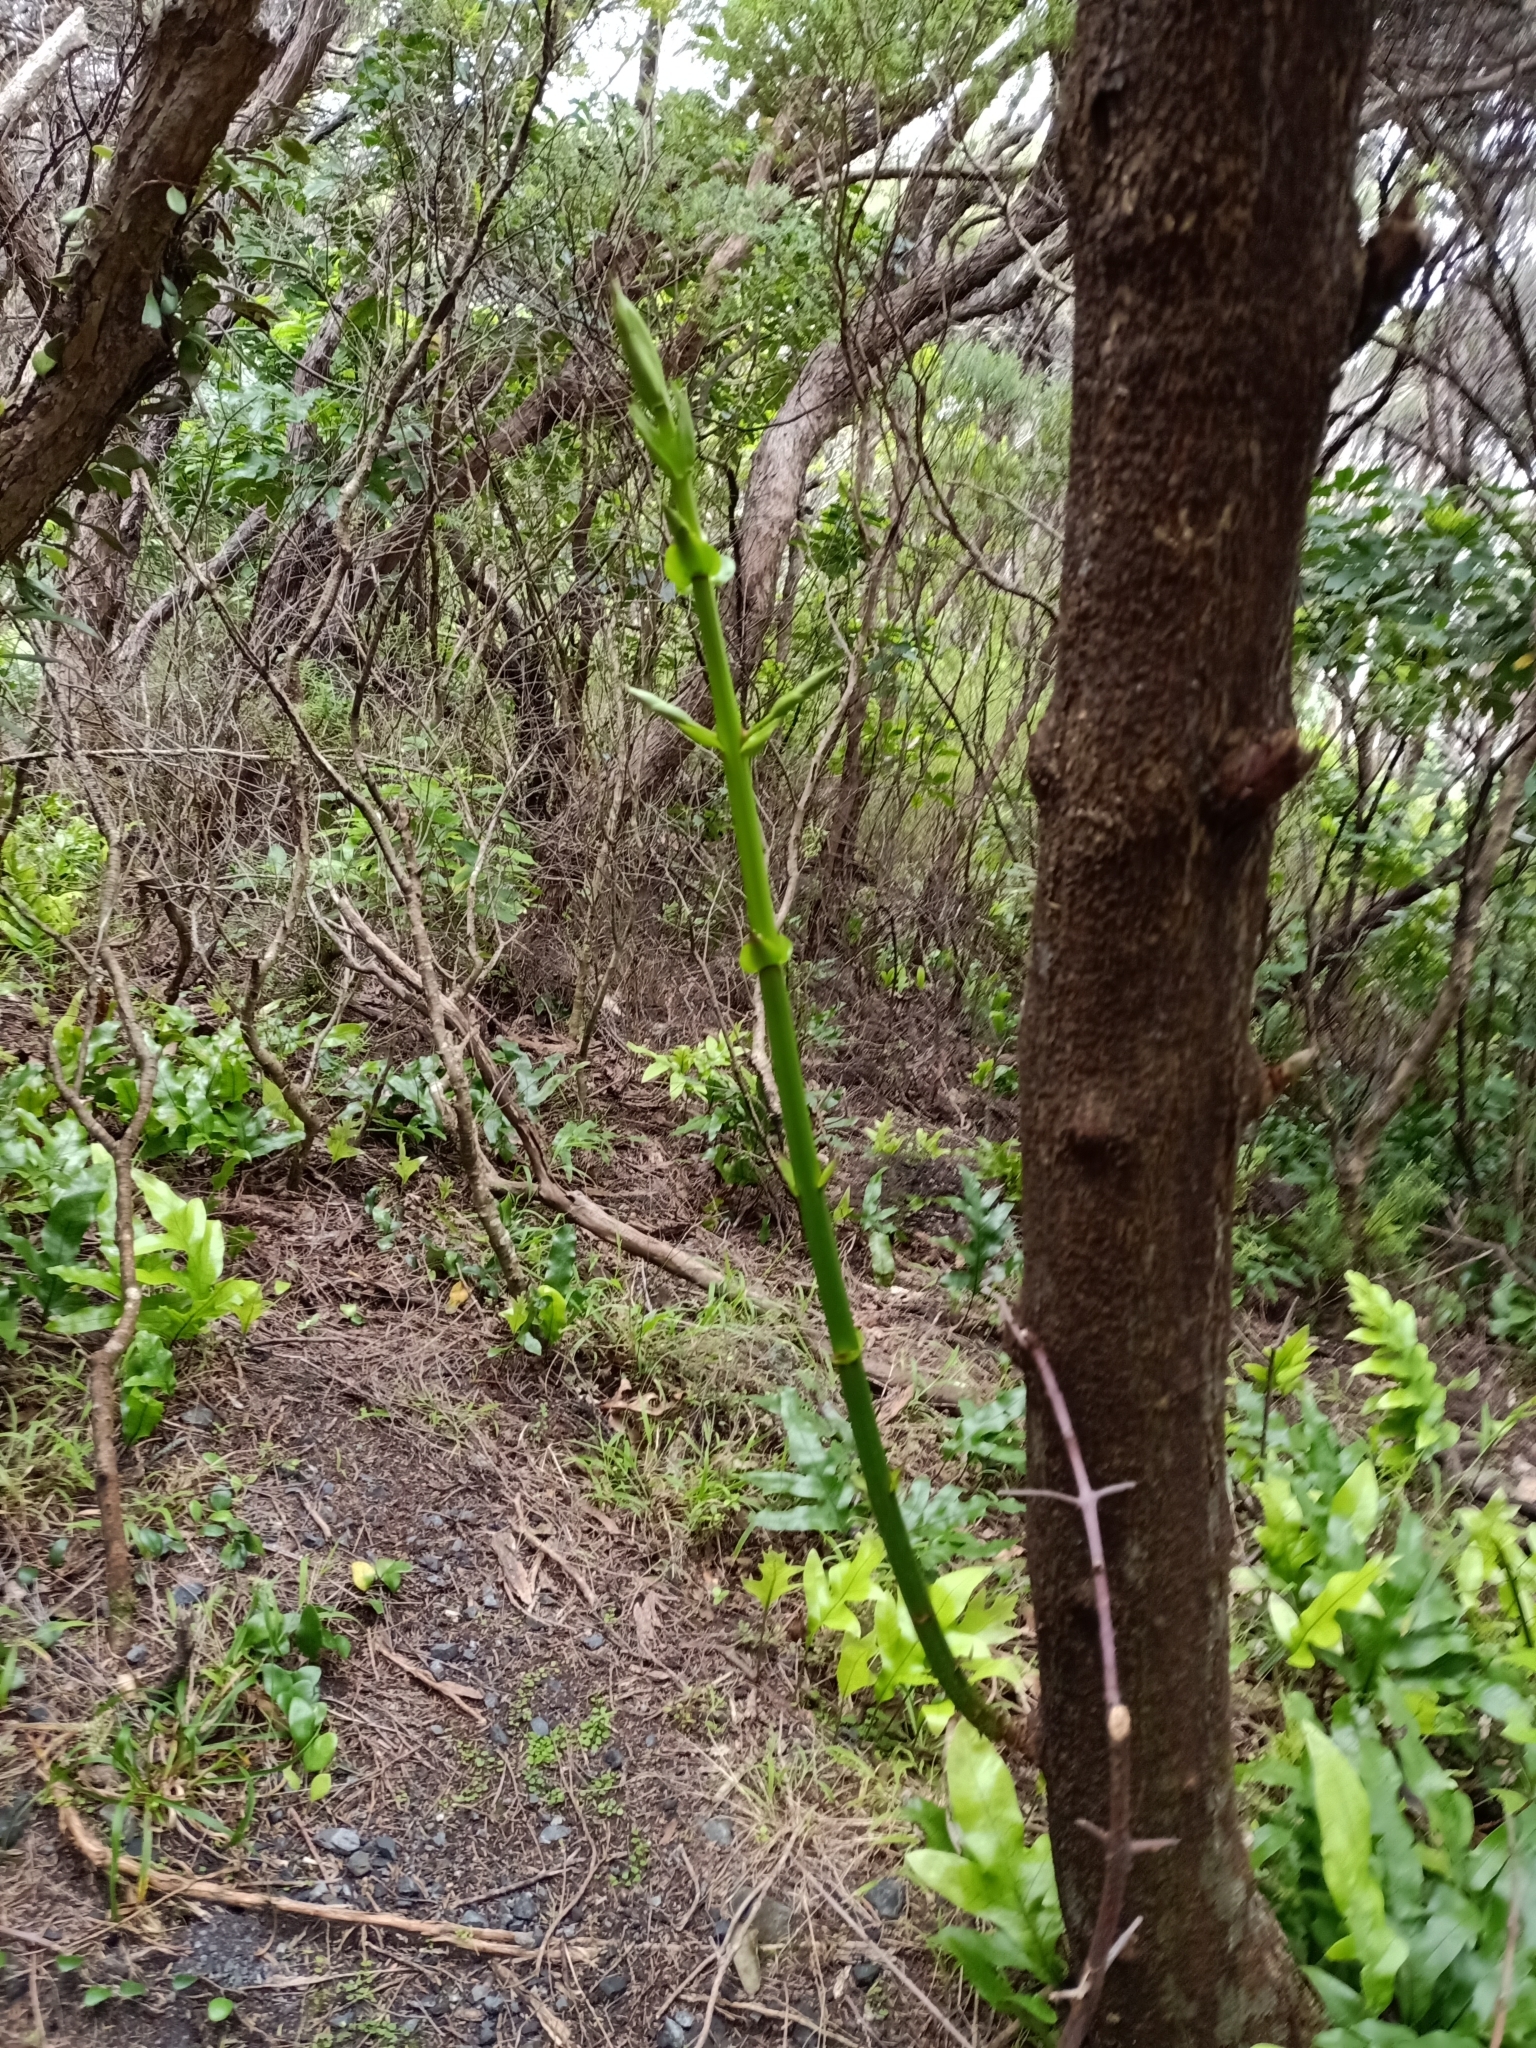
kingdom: Plantae
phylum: Tracheophyta
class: Magnoliopsida
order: Cucurbitales
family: Coriariaceae
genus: Coriaria
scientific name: Coriaria arborea
